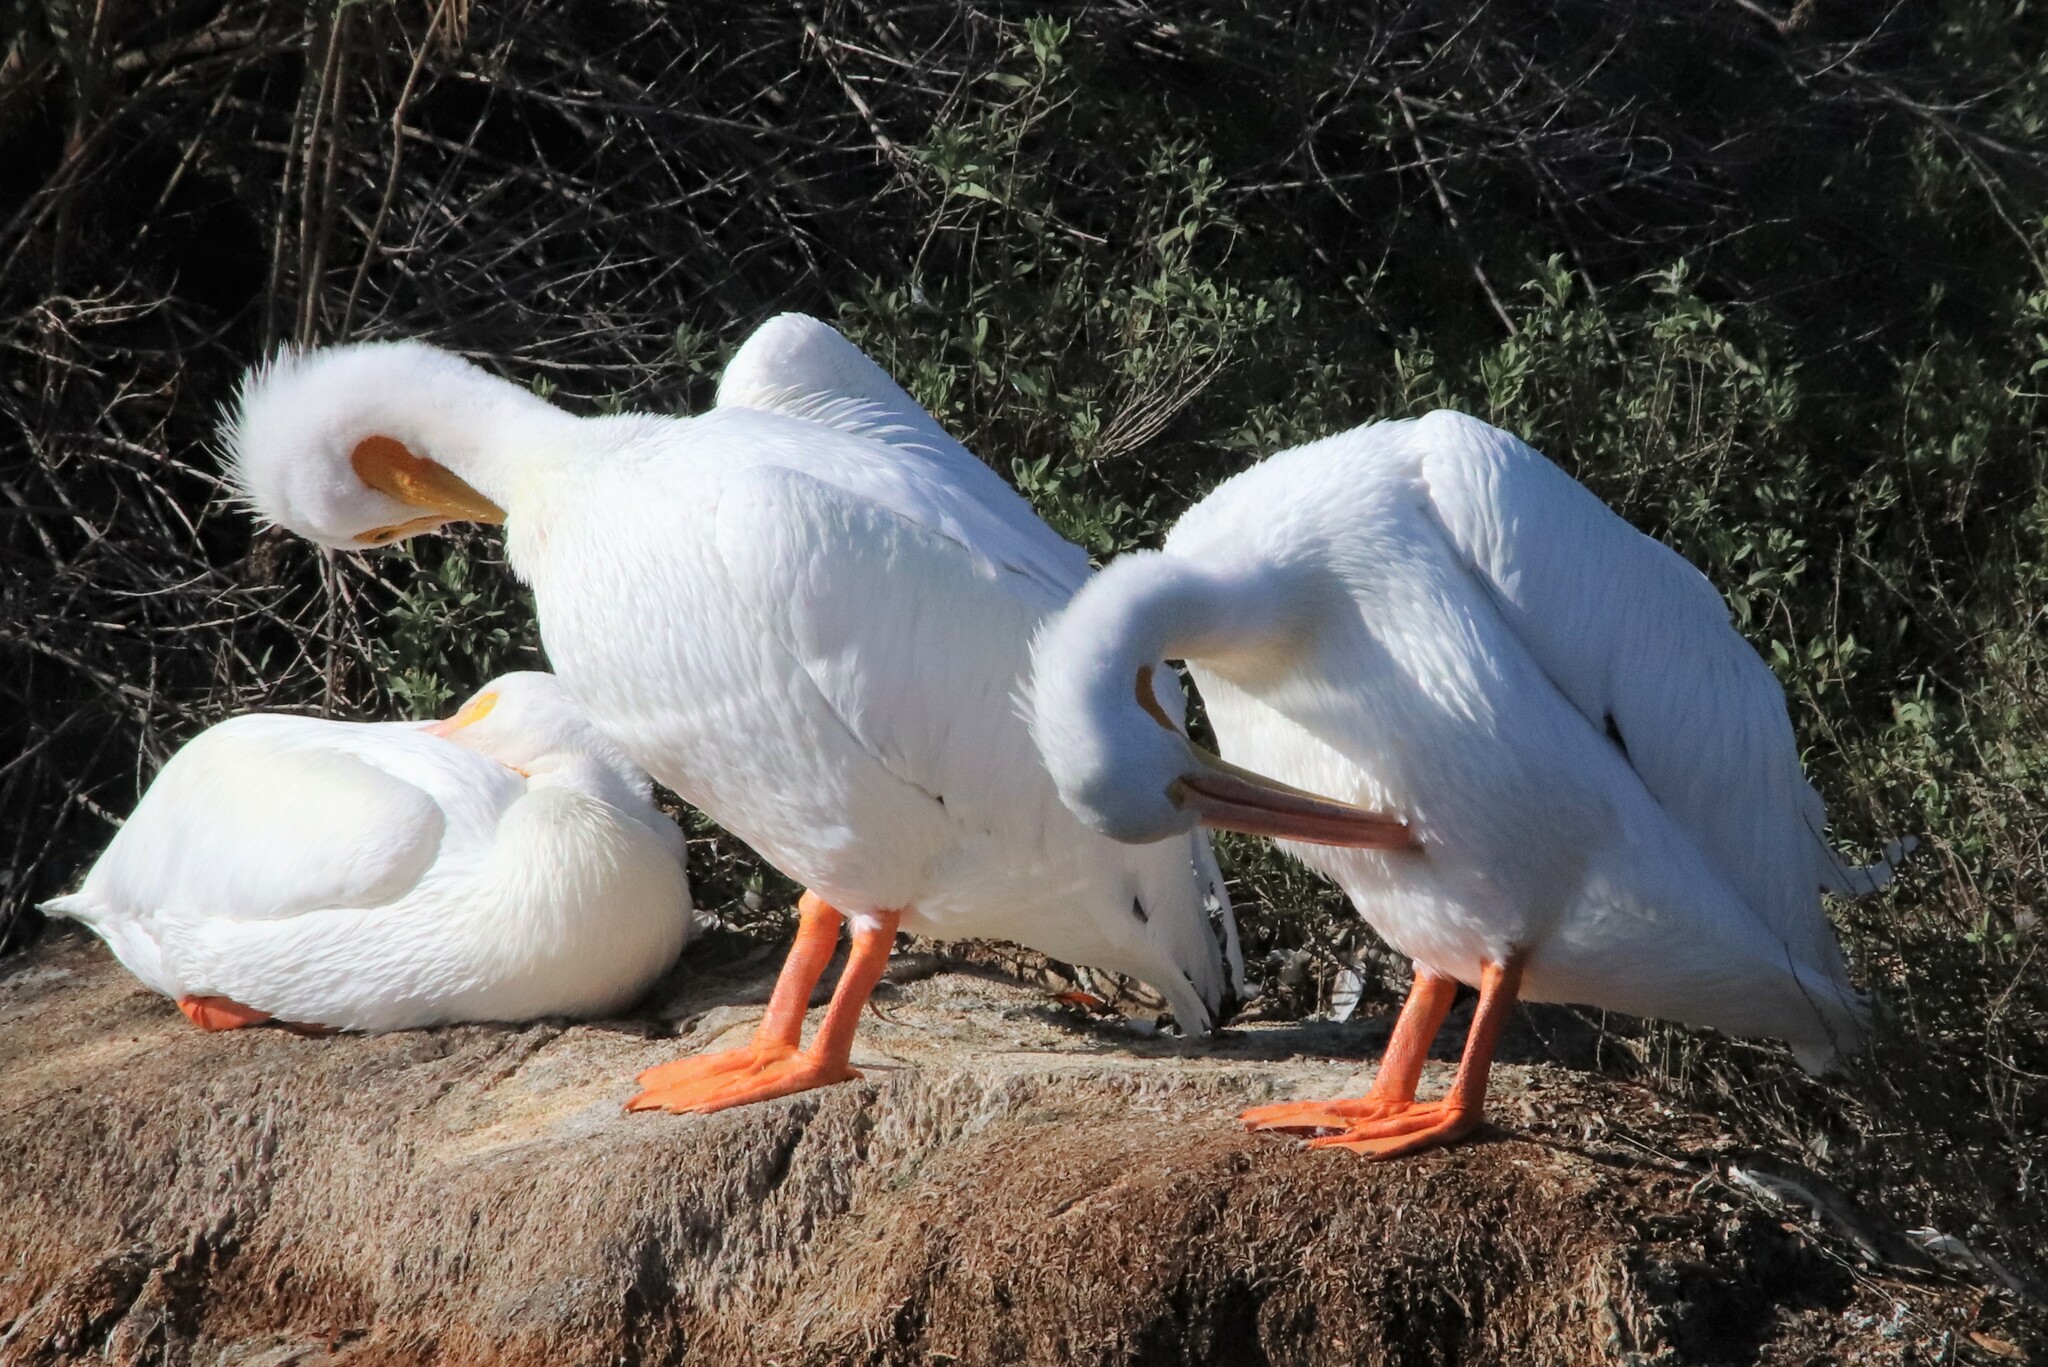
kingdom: Animalia
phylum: Chordata
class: Aves
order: Pelecaniformes
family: Pelecanidae
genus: Pelecanus
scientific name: Pelecanus erythrorhynchos
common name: American white pelican
